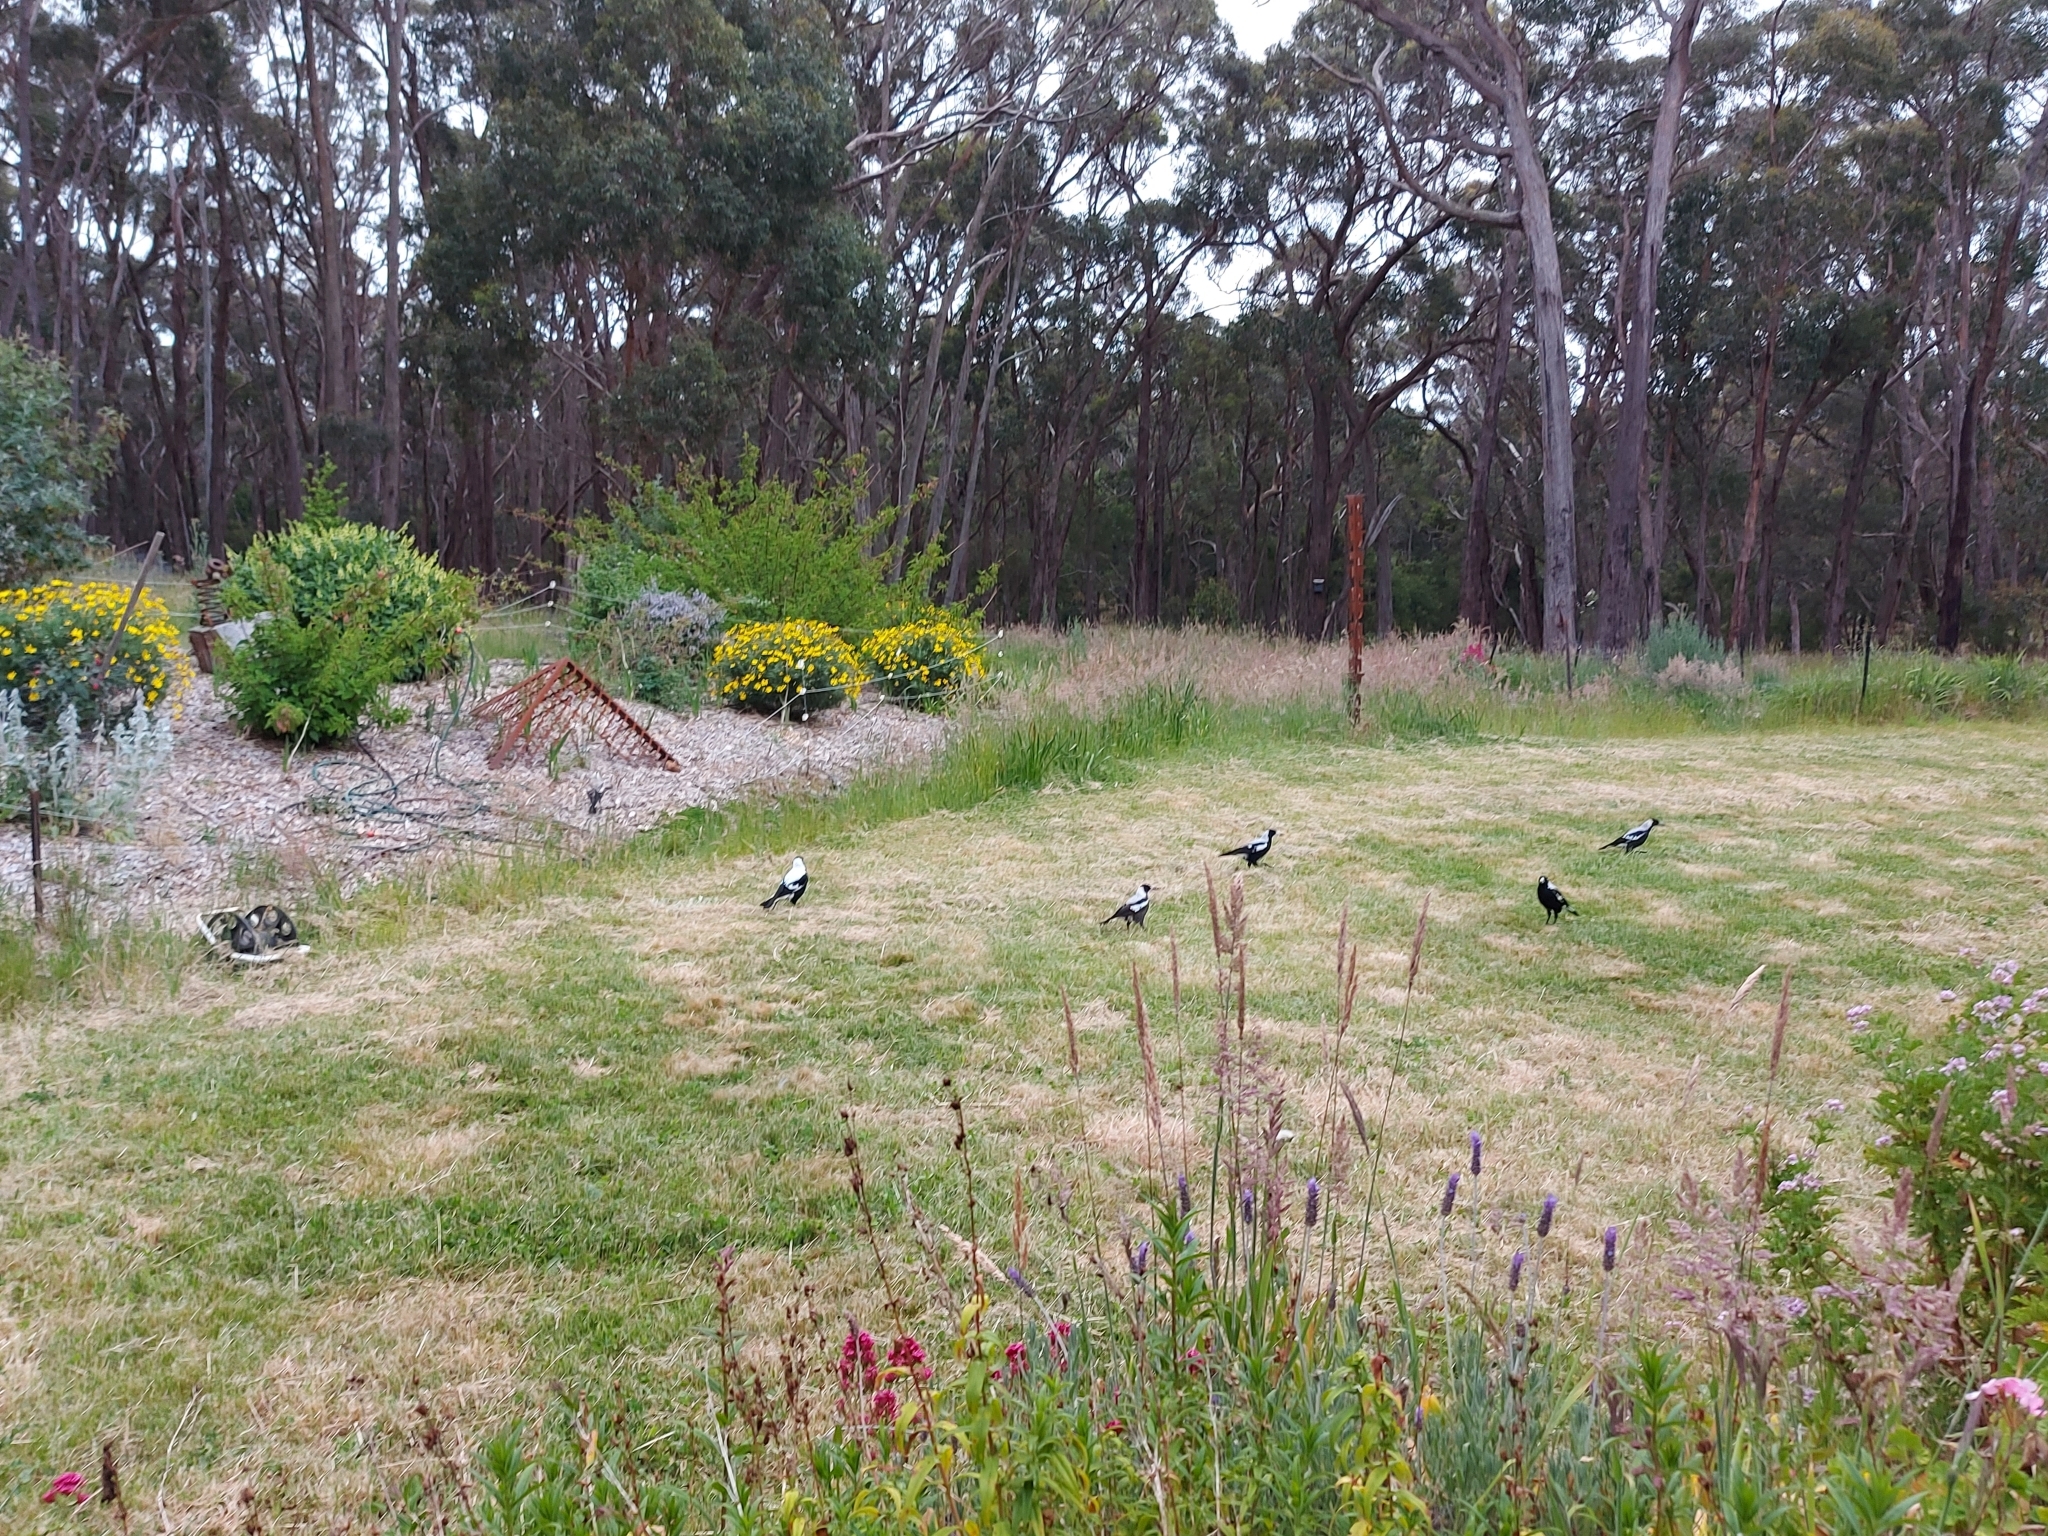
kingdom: Animalia
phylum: Chordata
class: Aves
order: Passeriformes
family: Cracticidae
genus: Gymnorhina
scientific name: Gymnorhina tibicen
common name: Australian magpie
